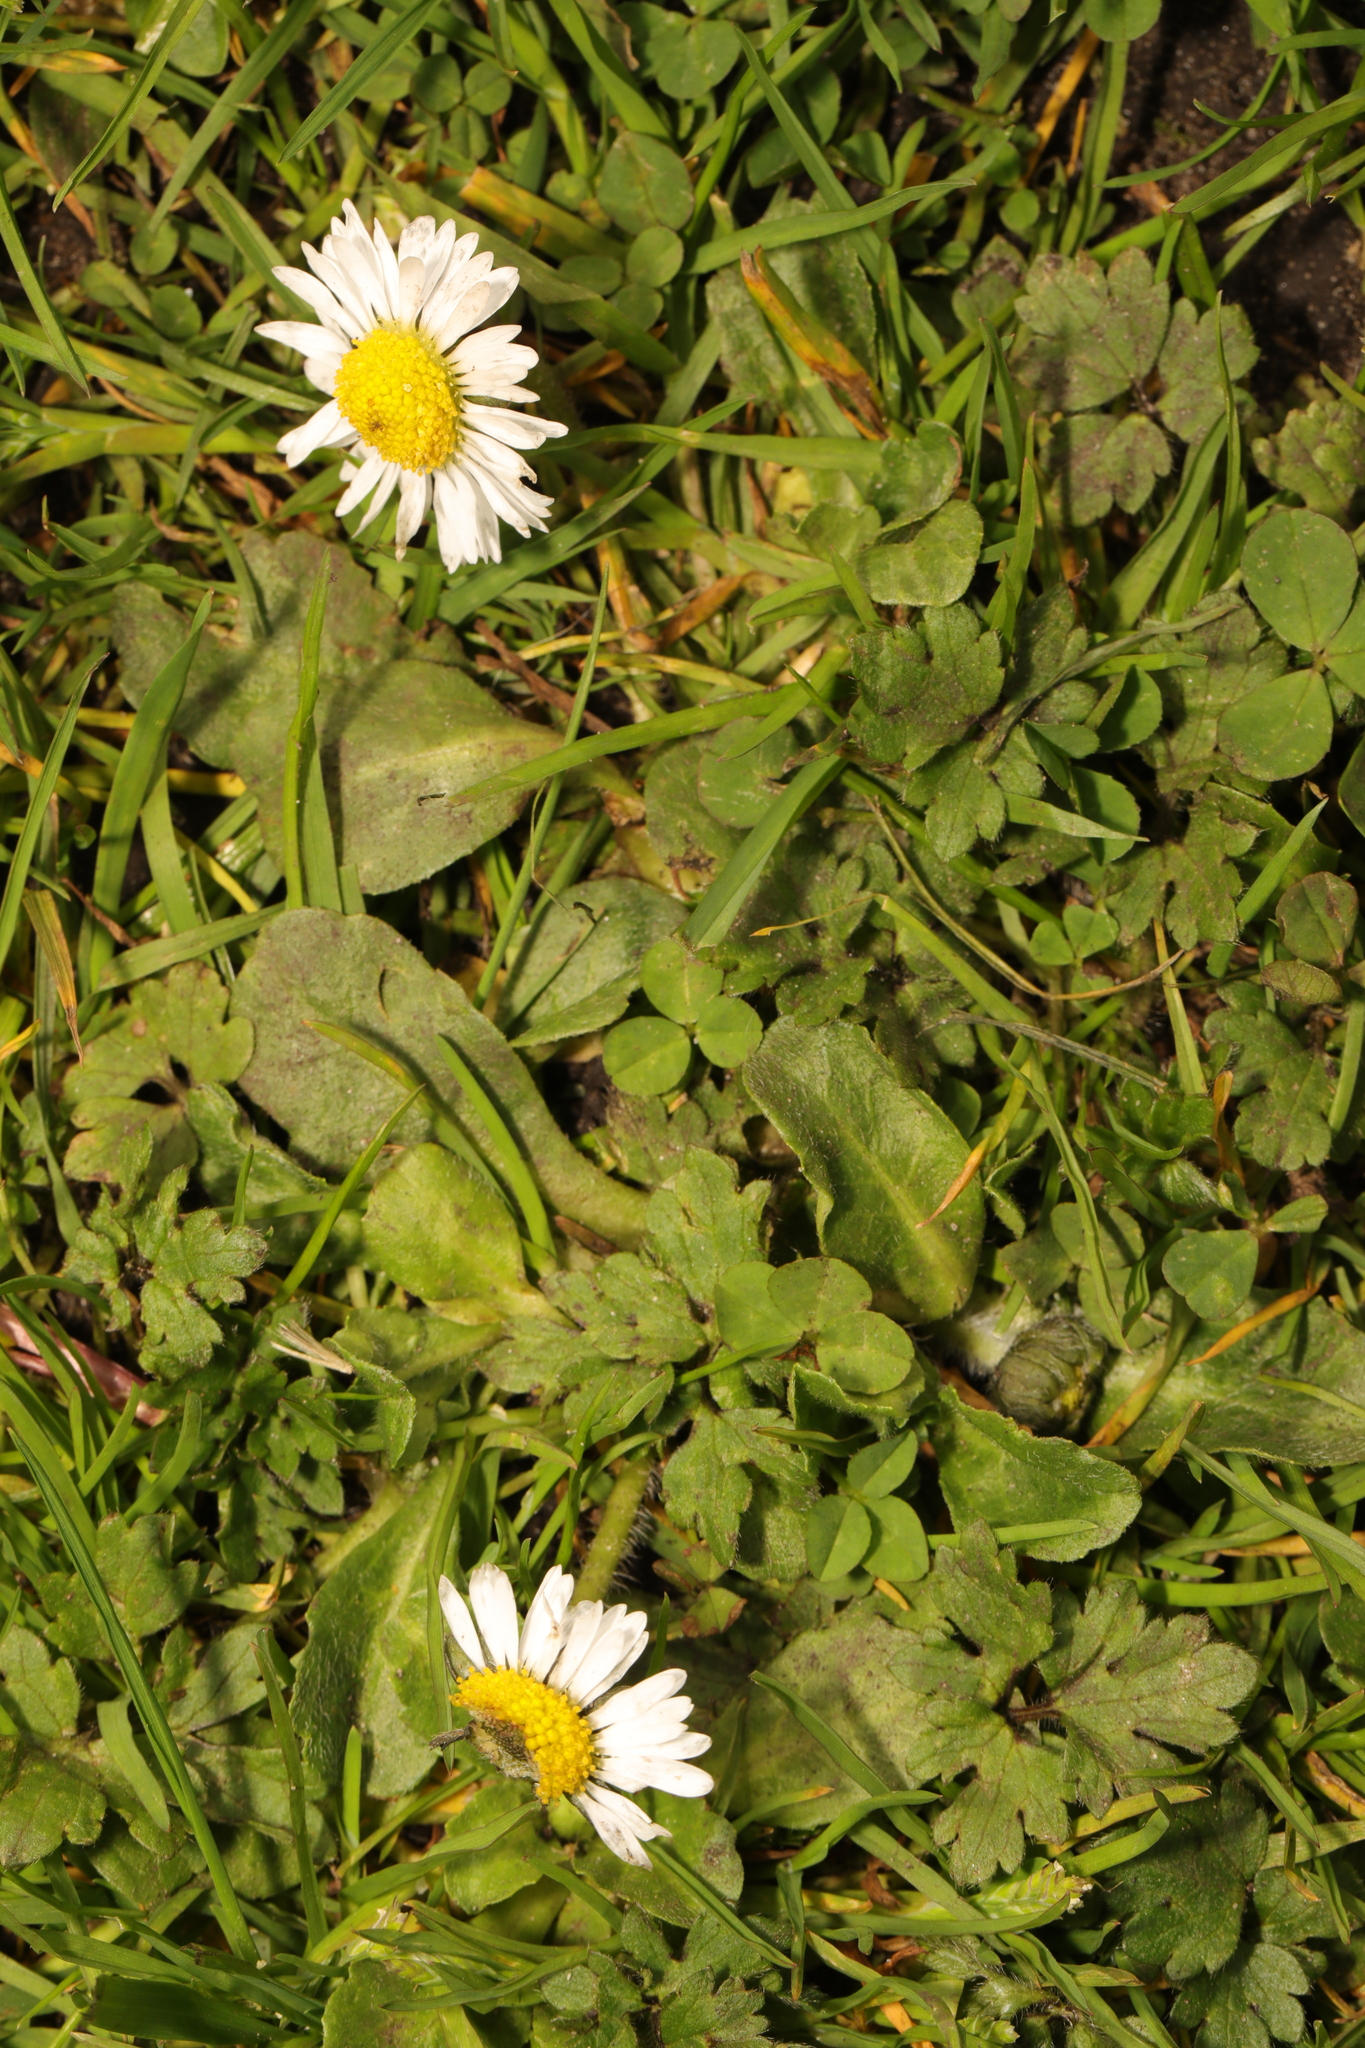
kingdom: Plantae
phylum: Tracheophyta
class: Magnoliopsida
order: Asterales
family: Asteraceae
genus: Bellis
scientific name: Bellis perennis
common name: Lawndaisy
